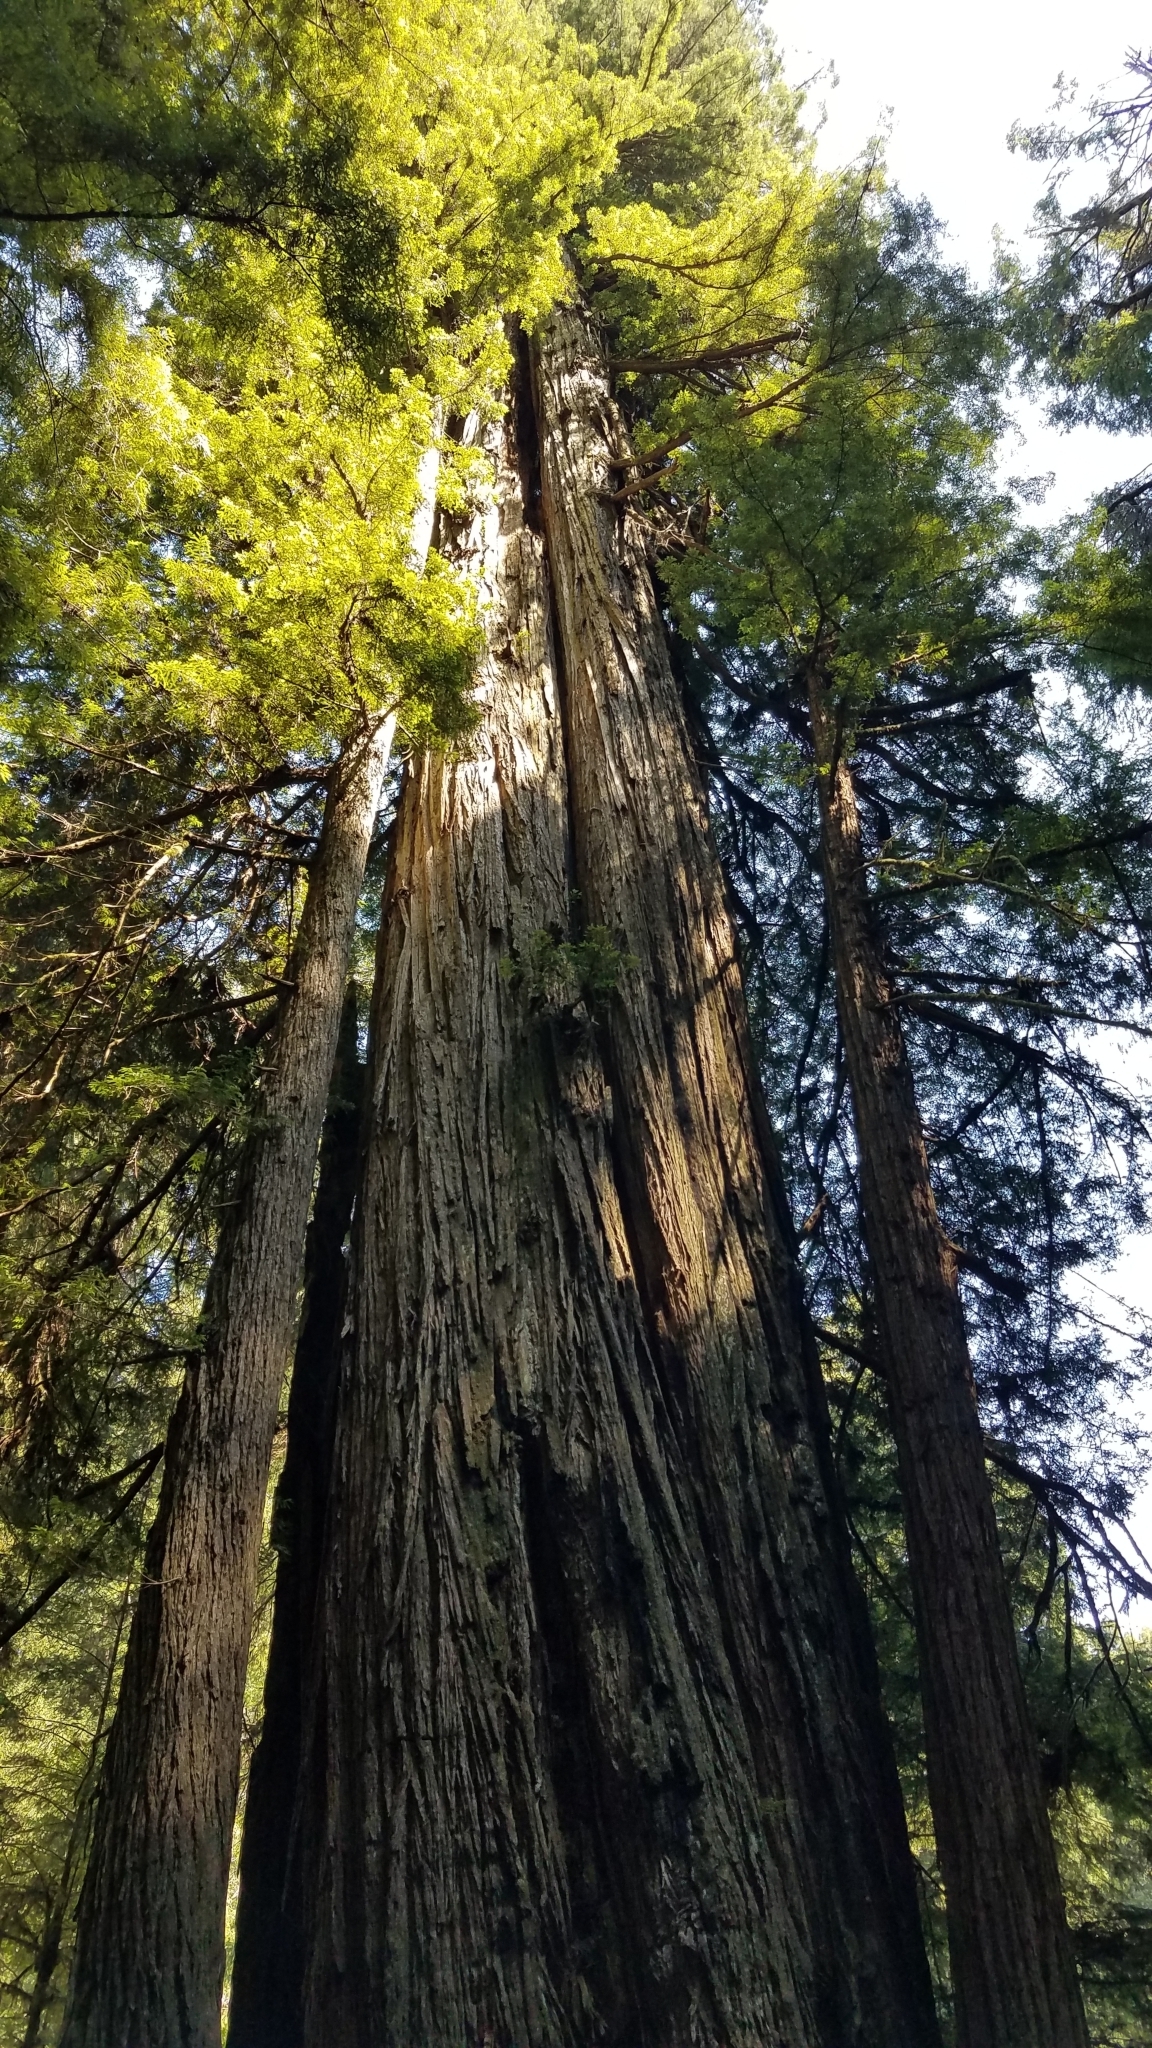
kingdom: Plantae
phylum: Tracheophyta
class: Pinopsida
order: Pinales
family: Cupressaceae
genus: Sequoia
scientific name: Sequoia sempervirens
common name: Coast redwood
